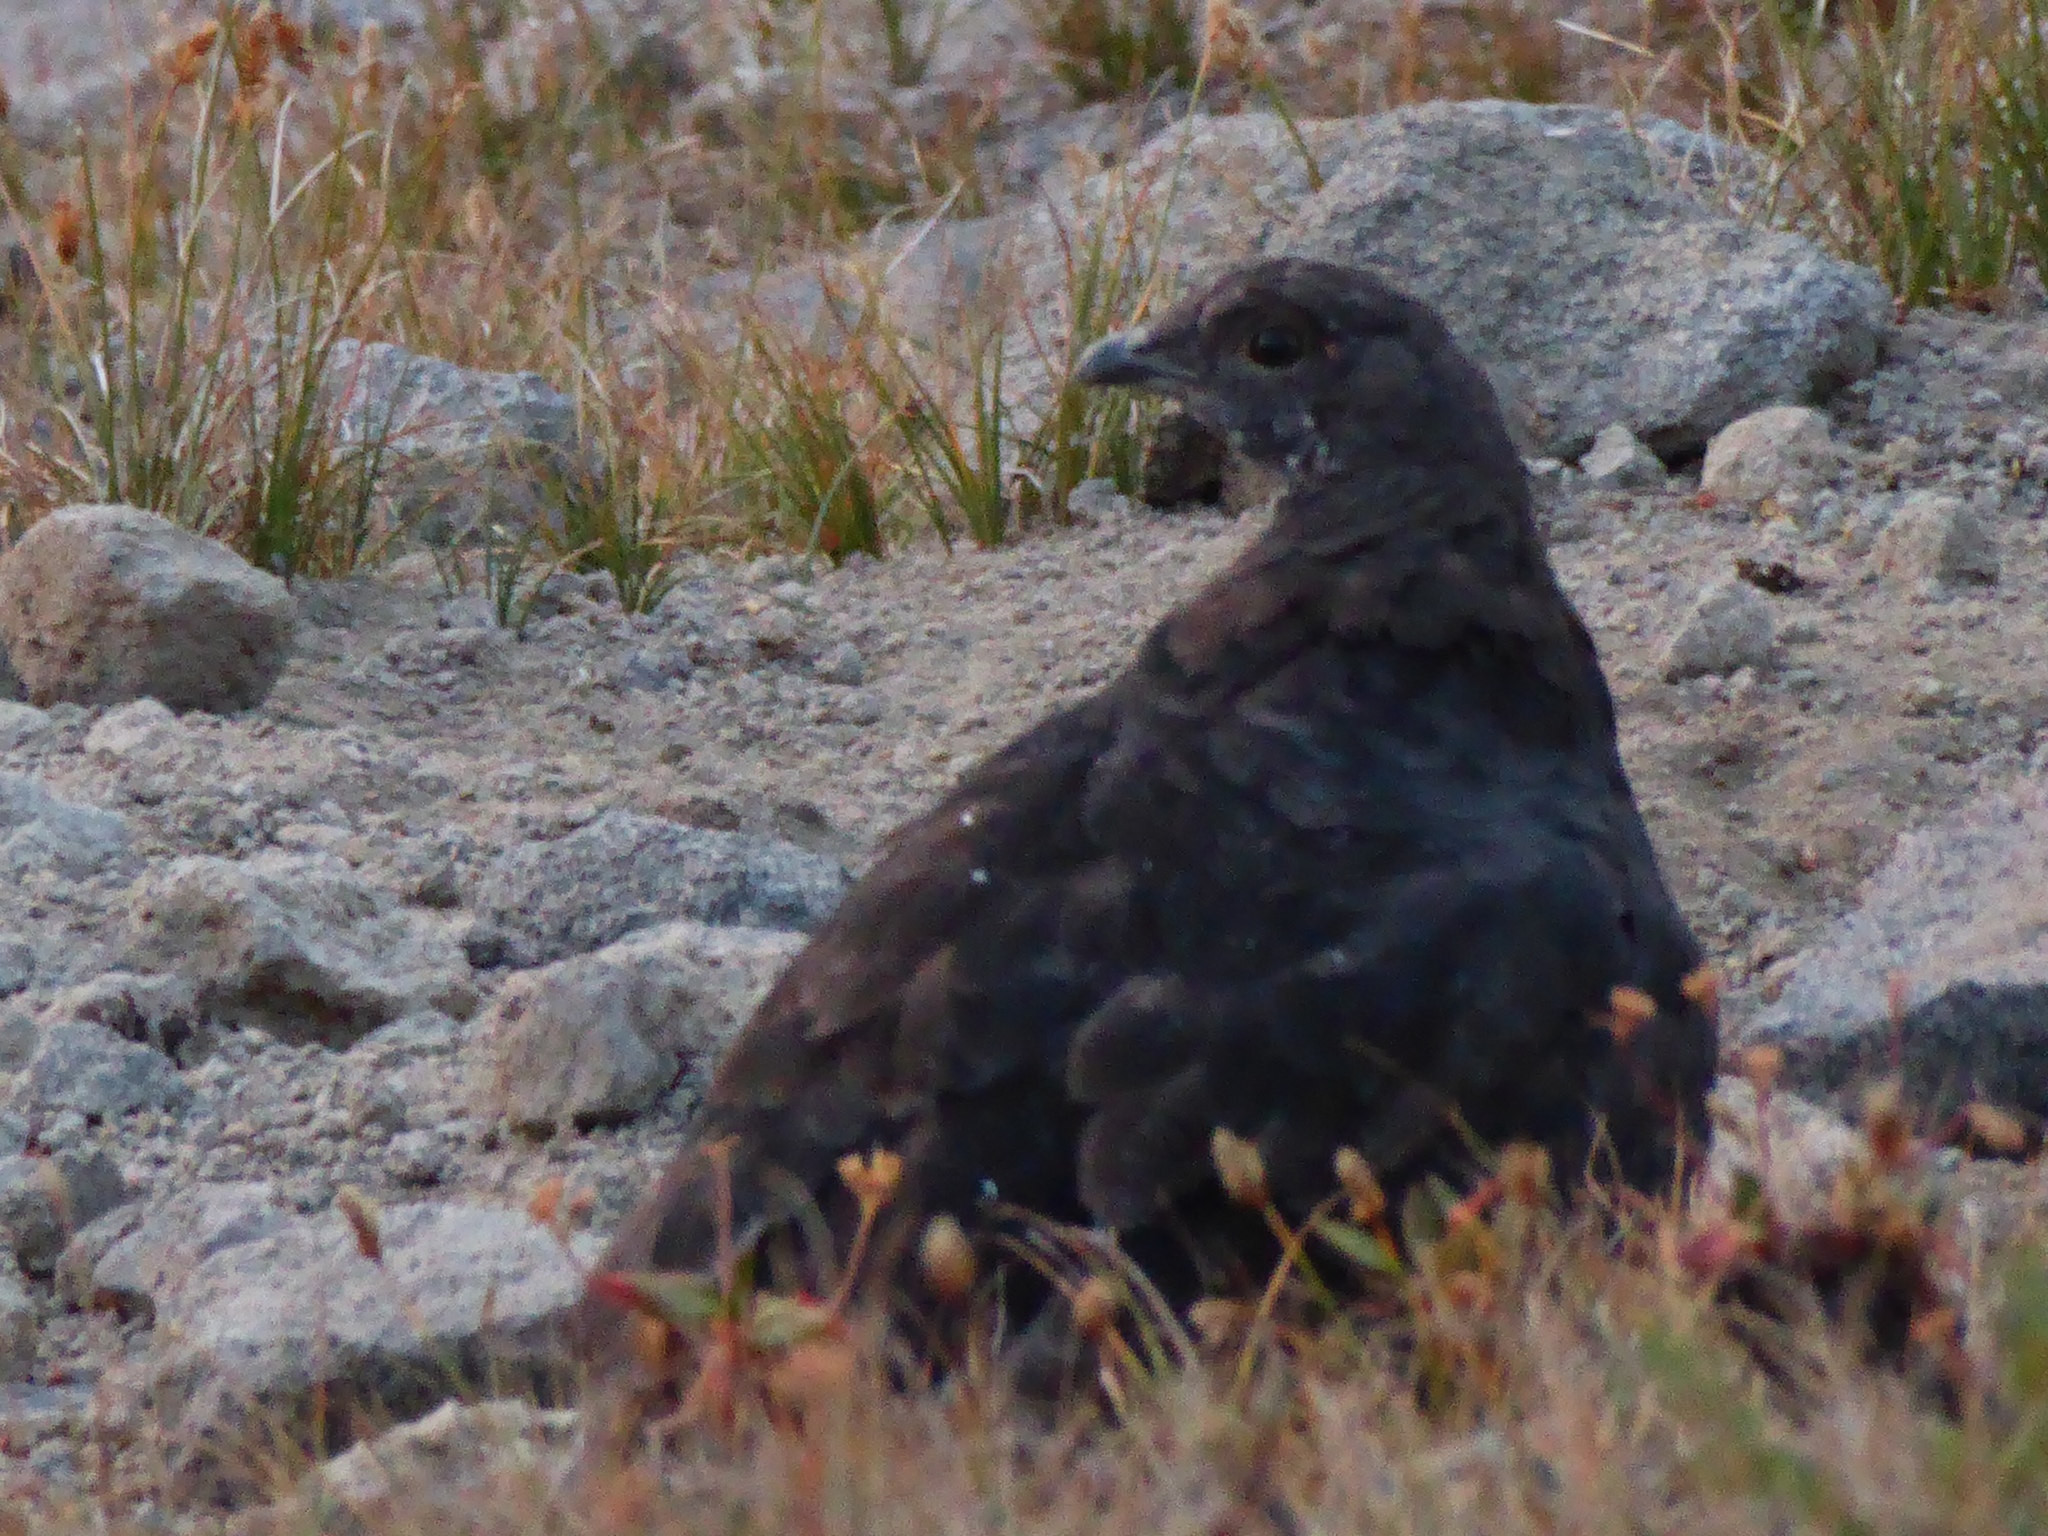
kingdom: Animalia
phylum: Chordata
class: Aves
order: Galliformes
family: Phasianidae
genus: Dendragapus
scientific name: Dendragapus fuliginosus
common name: Sooty grouse
